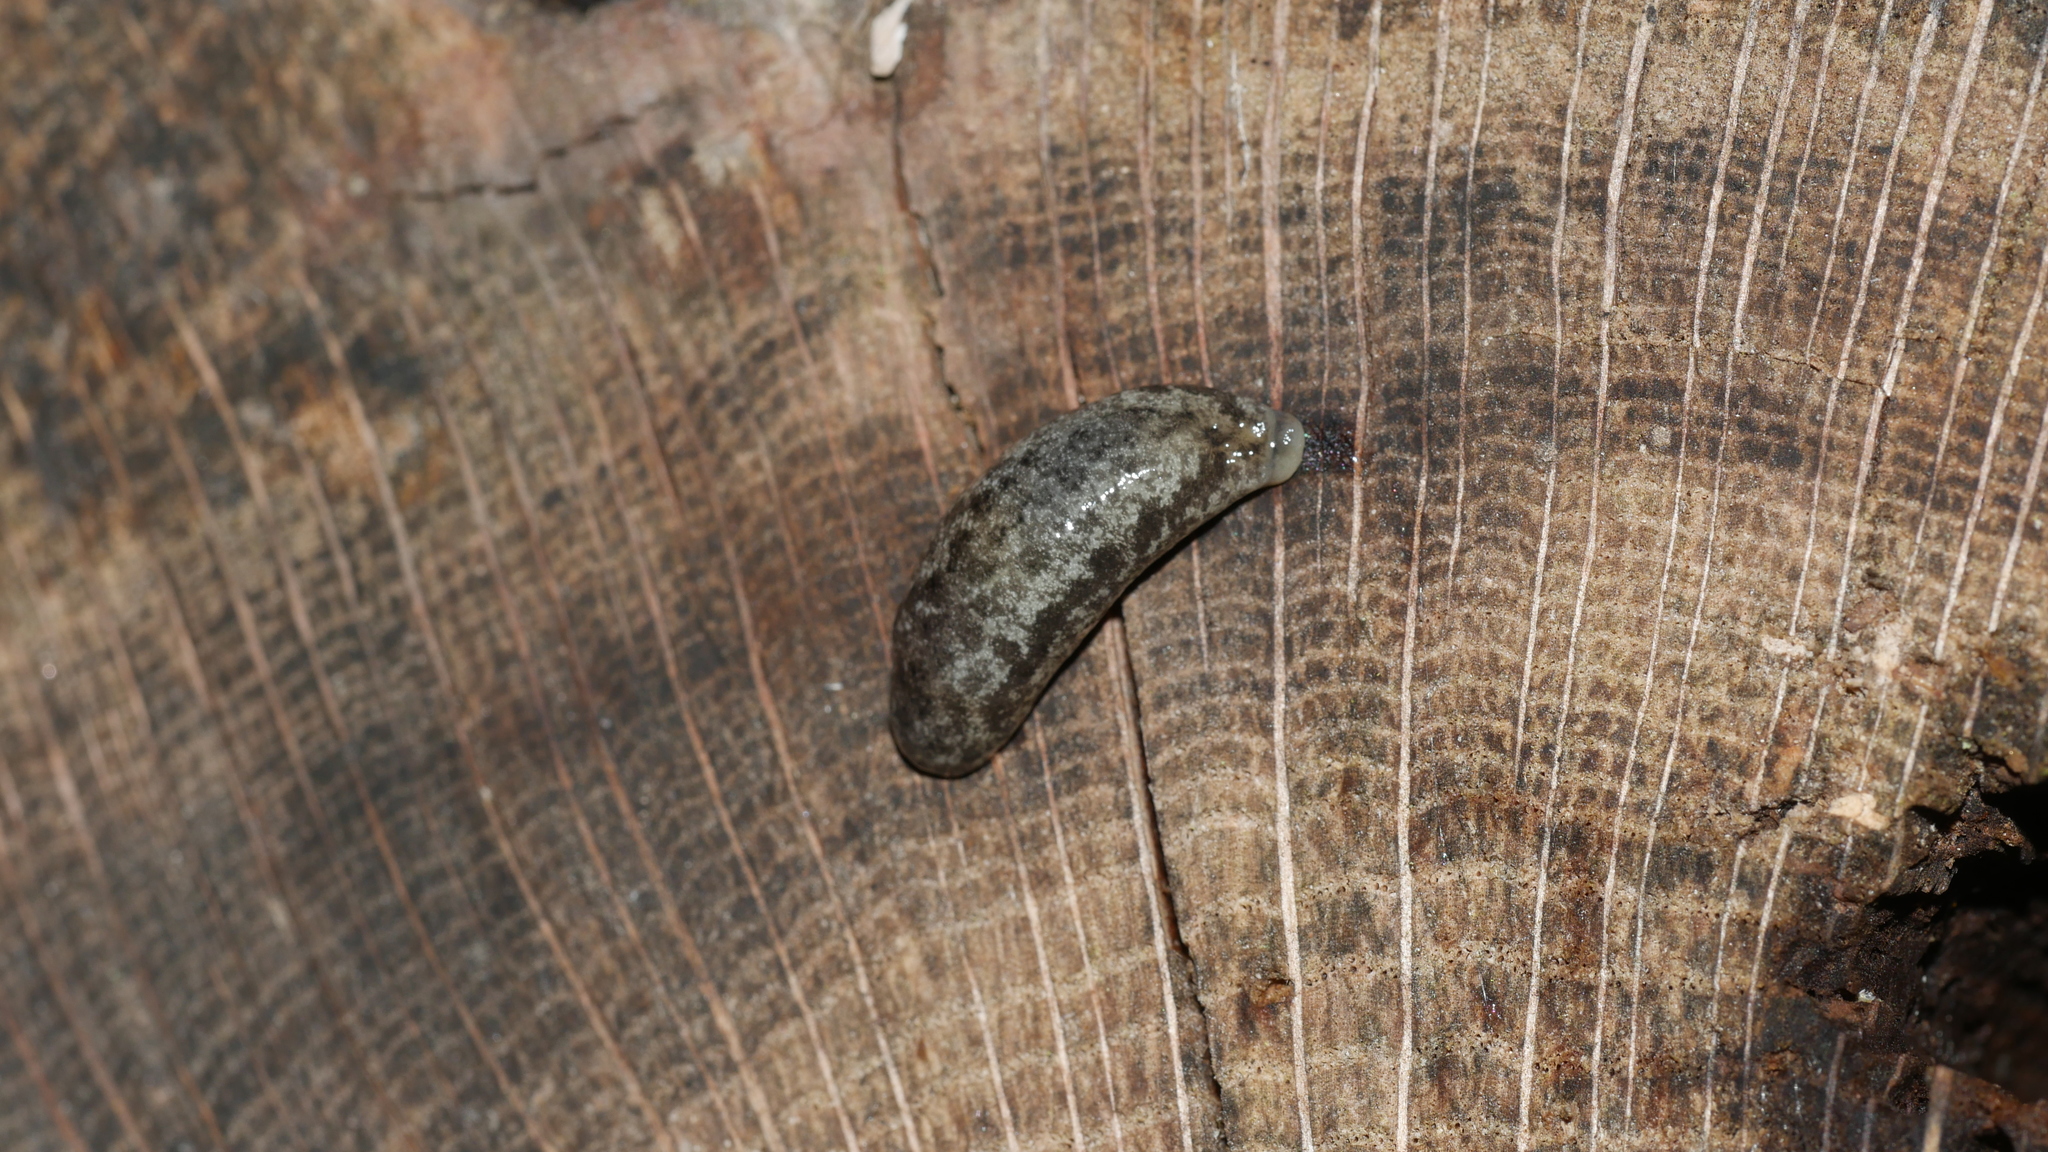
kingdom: Animalia
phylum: Mollusca
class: Gastropoda
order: Stylommatophora
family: Philomycidae
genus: Megapallifera
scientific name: Megapallifera mutabilis
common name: Changeable mantleslug
